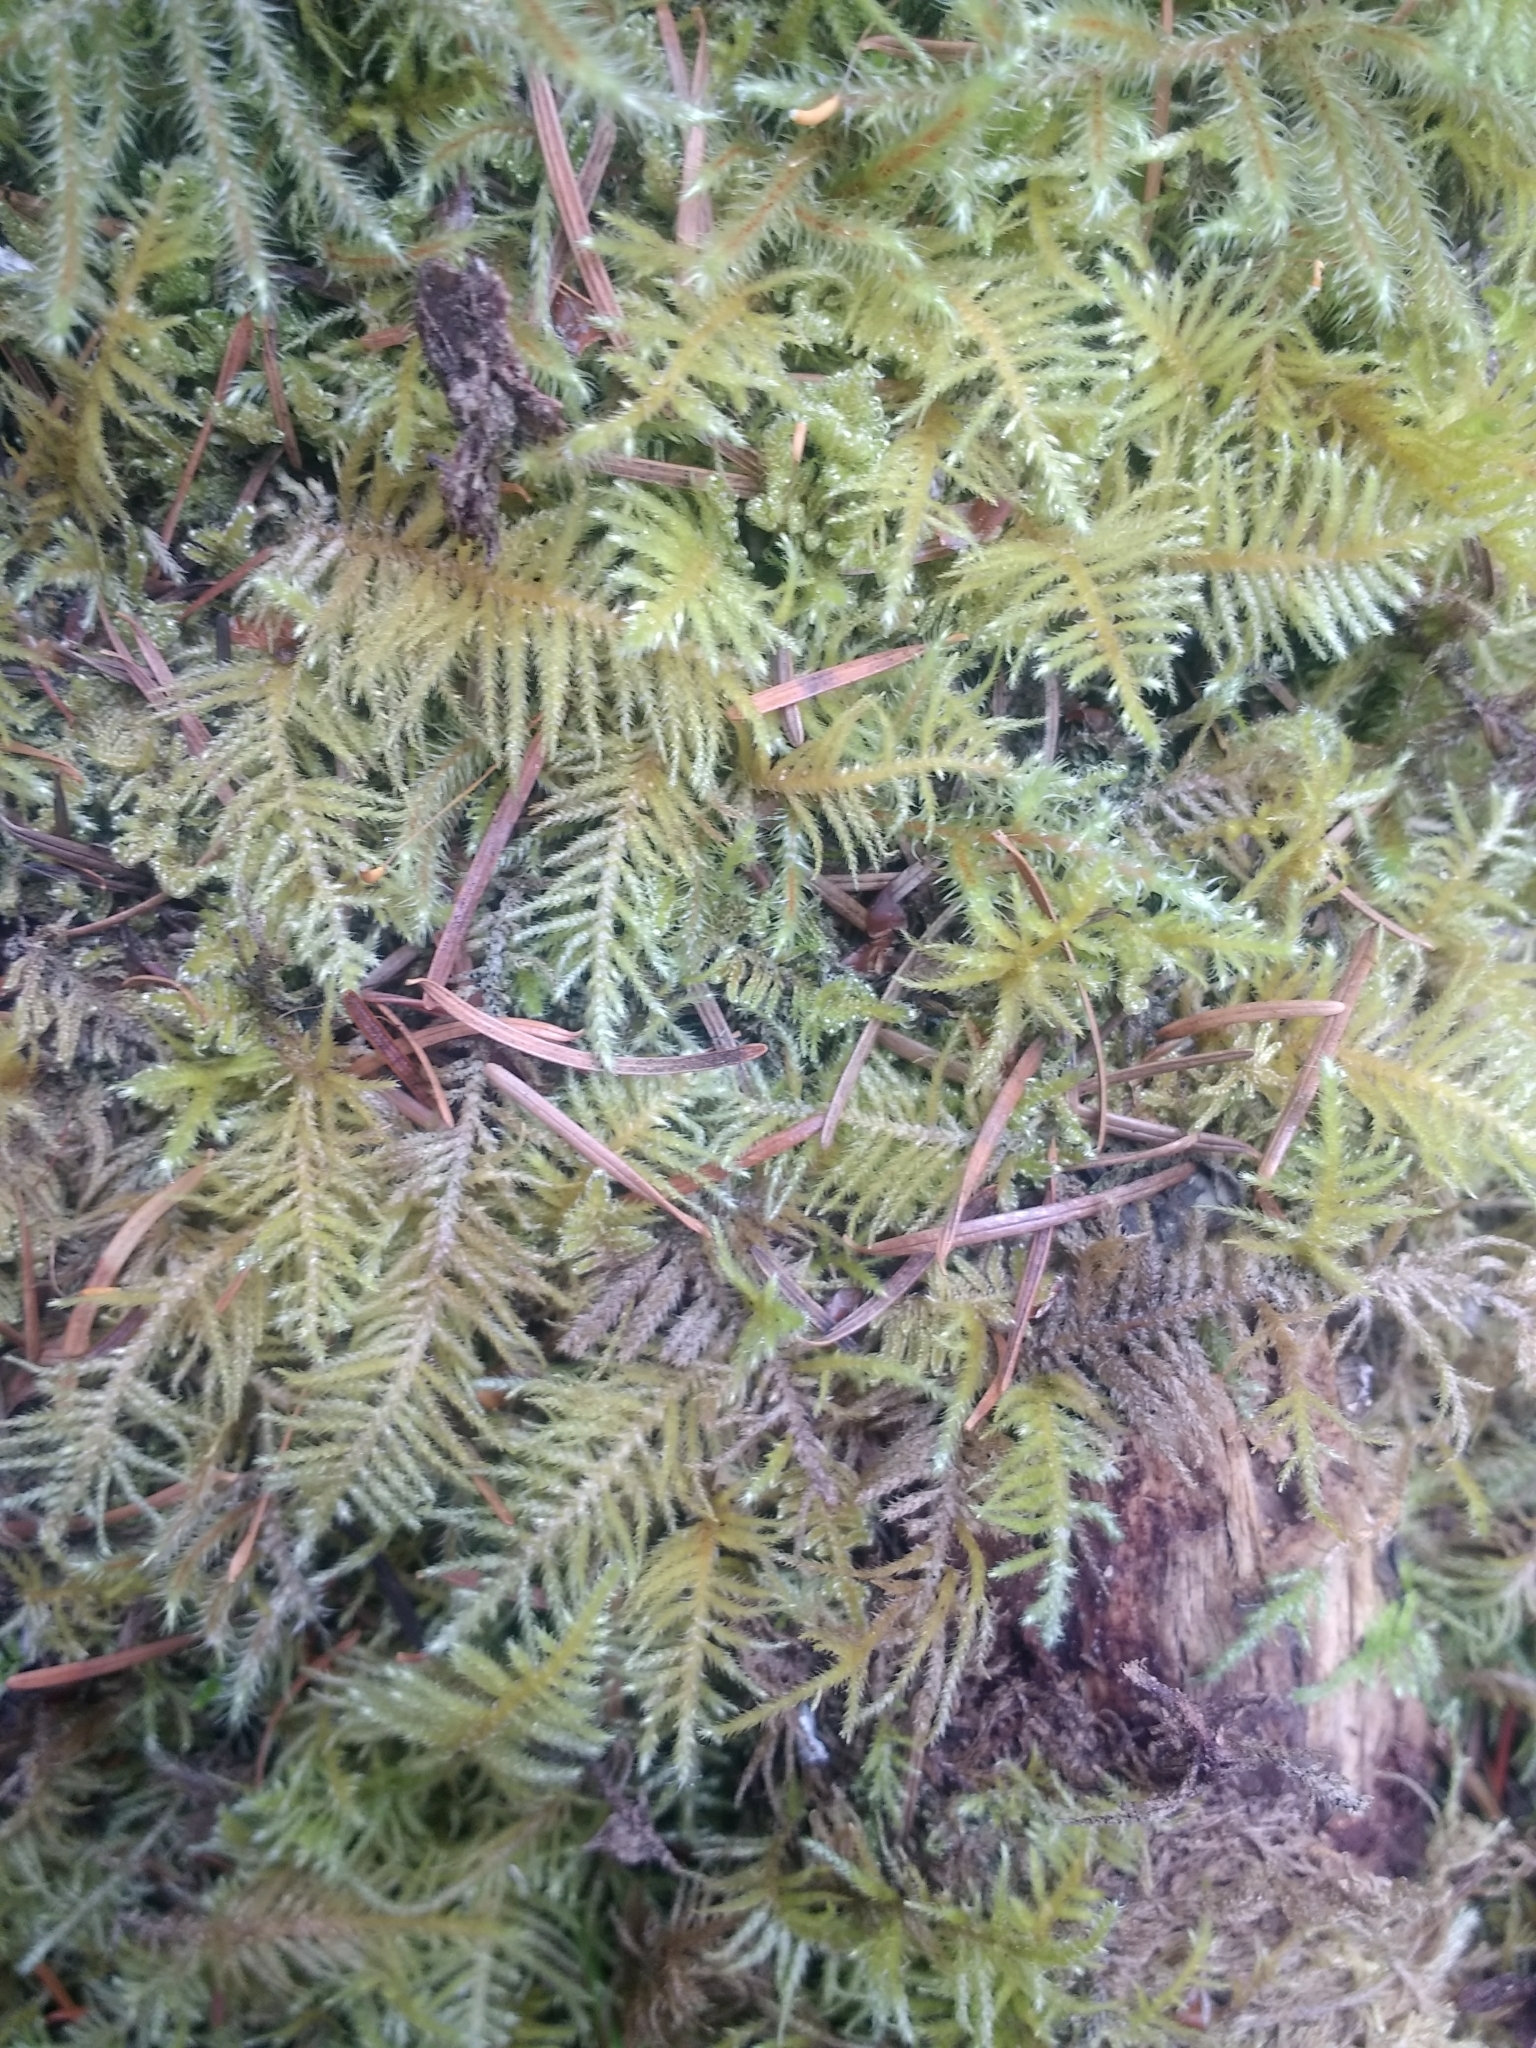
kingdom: Plantae
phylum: Bryophyta
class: Bryopsida
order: Hypnales
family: Brachytheciaceae
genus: Kindbergia
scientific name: Kindbergia oregana
